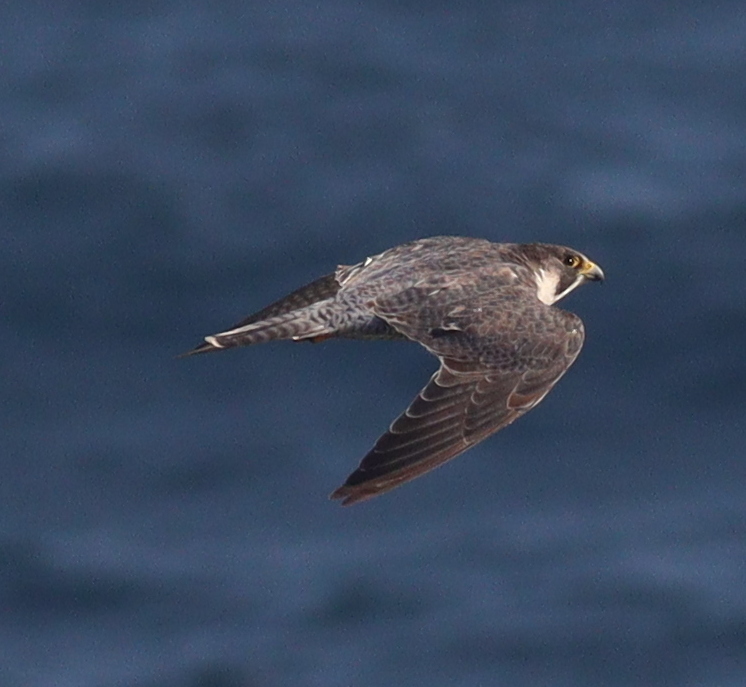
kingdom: Animalia
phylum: Chordata
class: Aves
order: Falconiformes
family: Falconidae
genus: Falco
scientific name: Falco peregrinus
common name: Peregrine falcon
